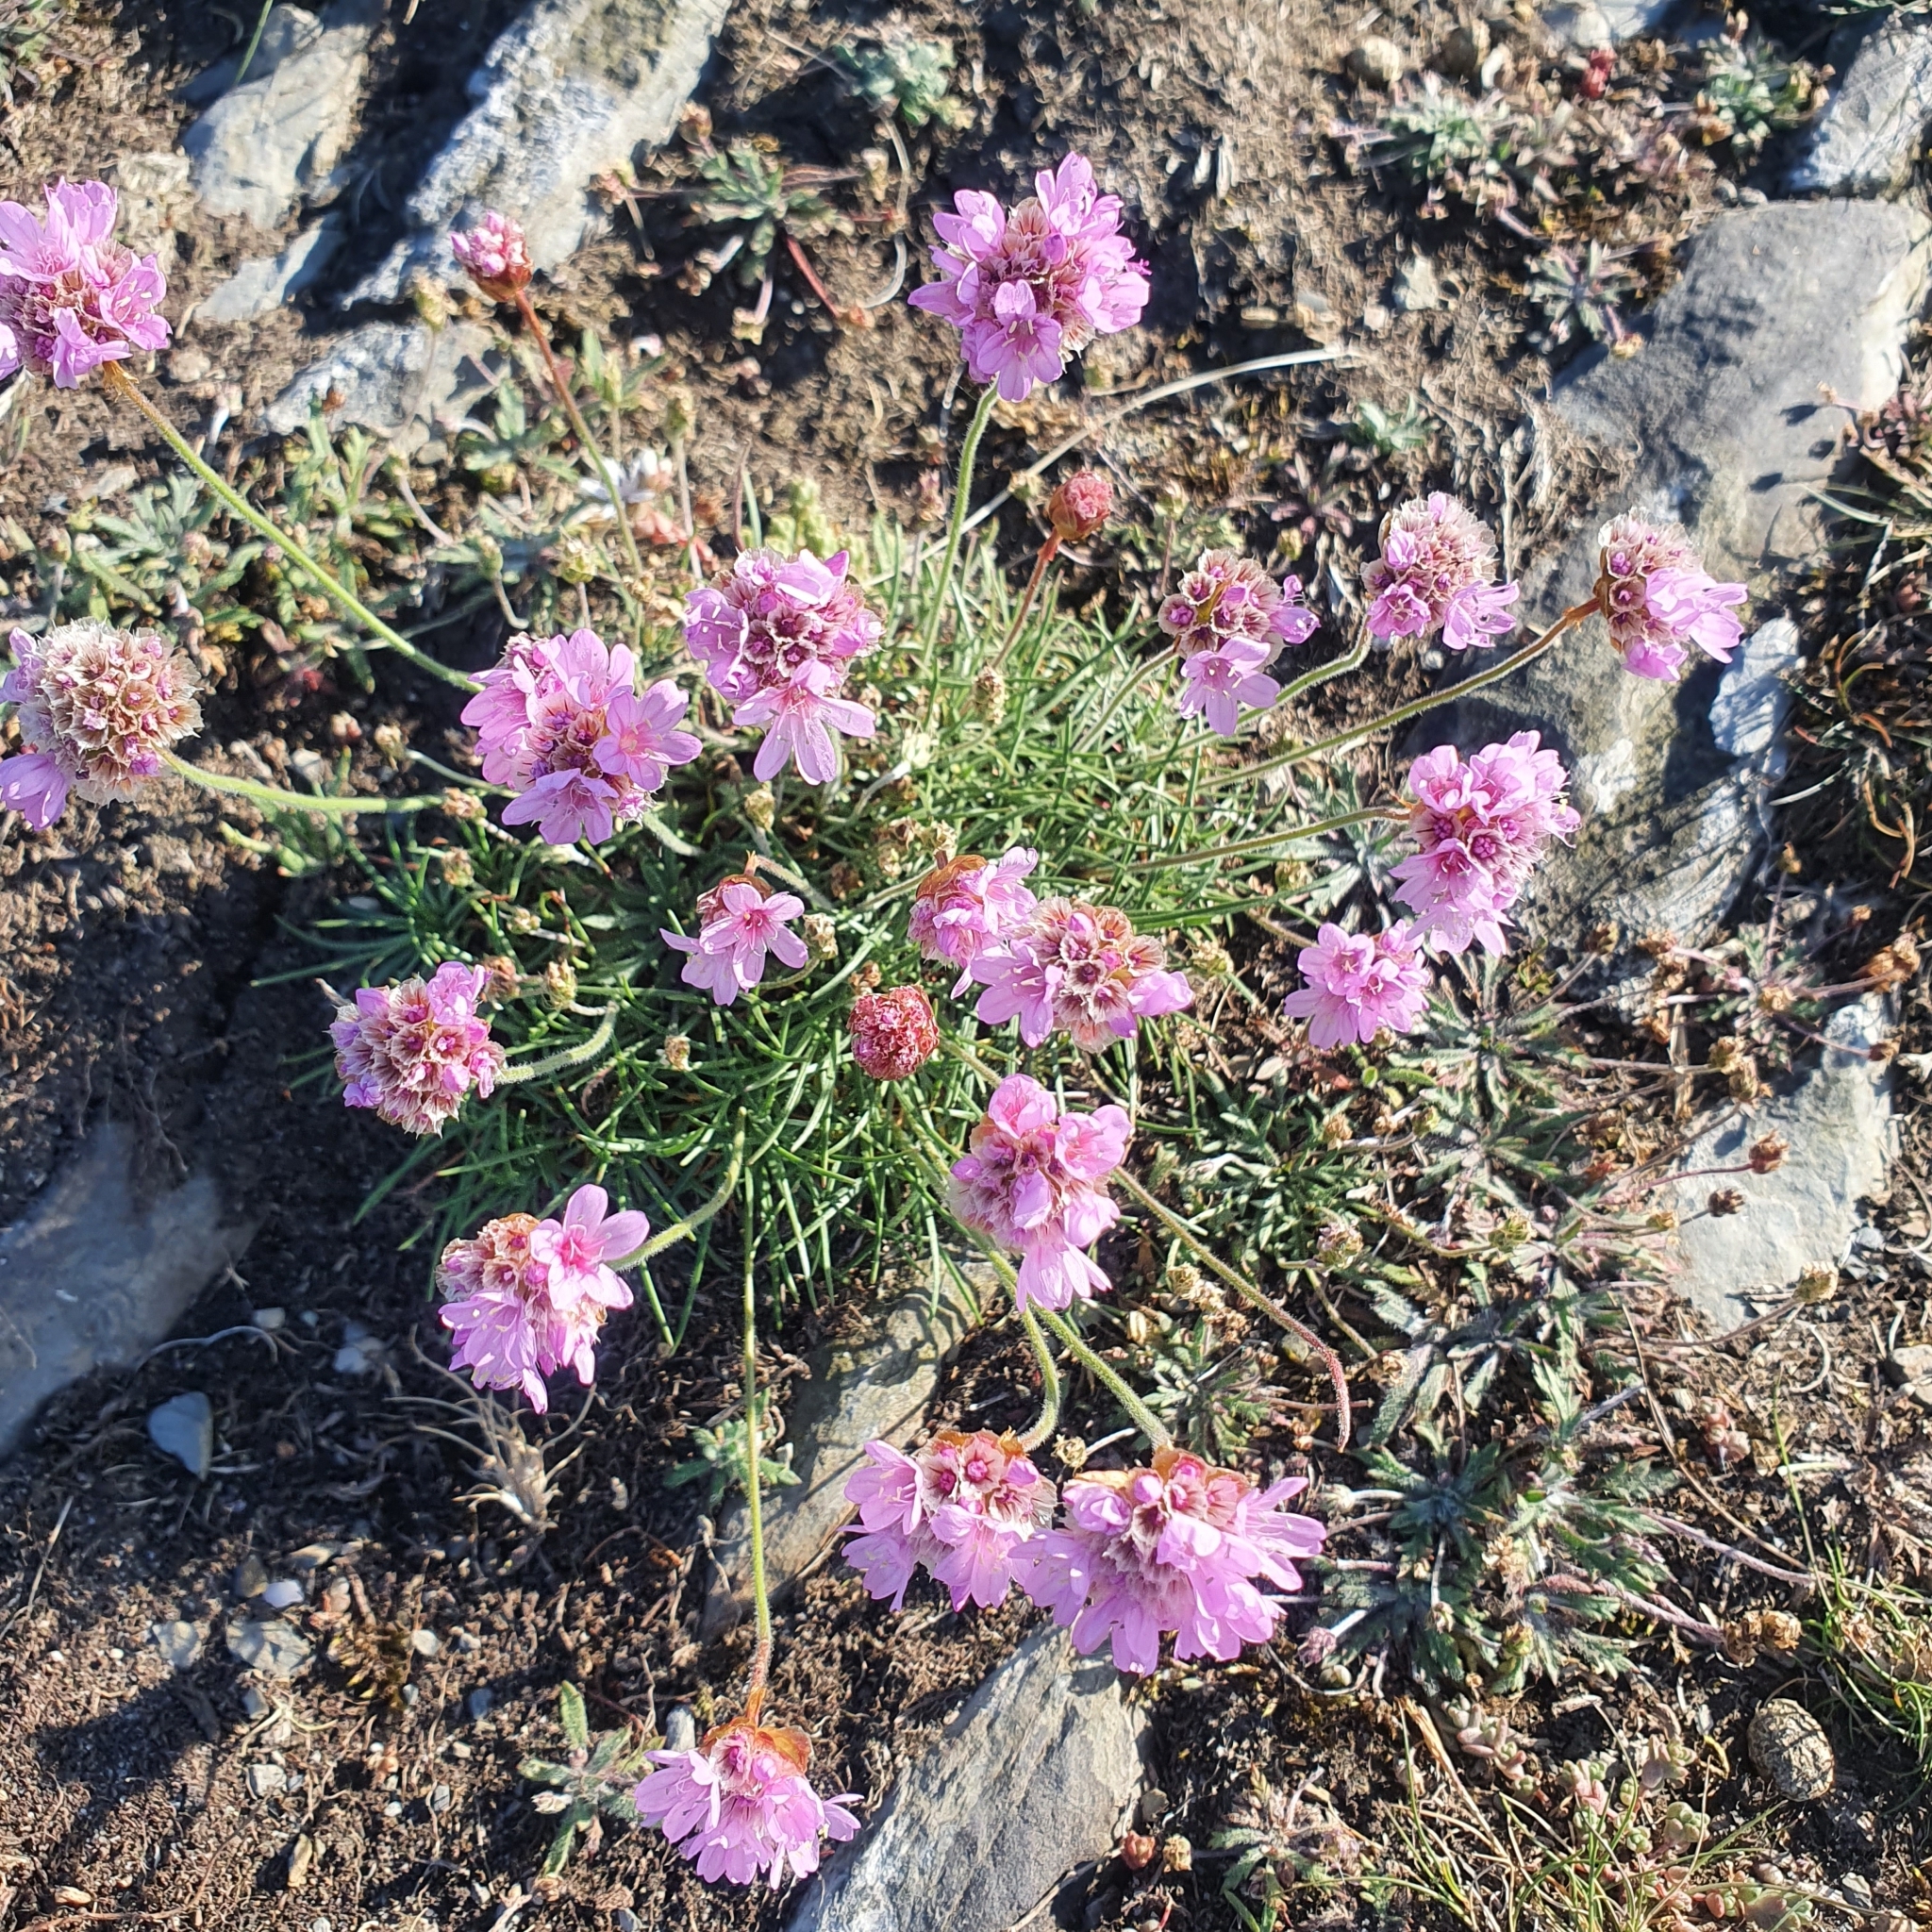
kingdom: Plantae
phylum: Tracheophyta
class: Magnoliopsida
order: Caryophyllales
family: Plumbaginaceae
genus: Armeria
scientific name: Armeria maritima
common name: Thrift
